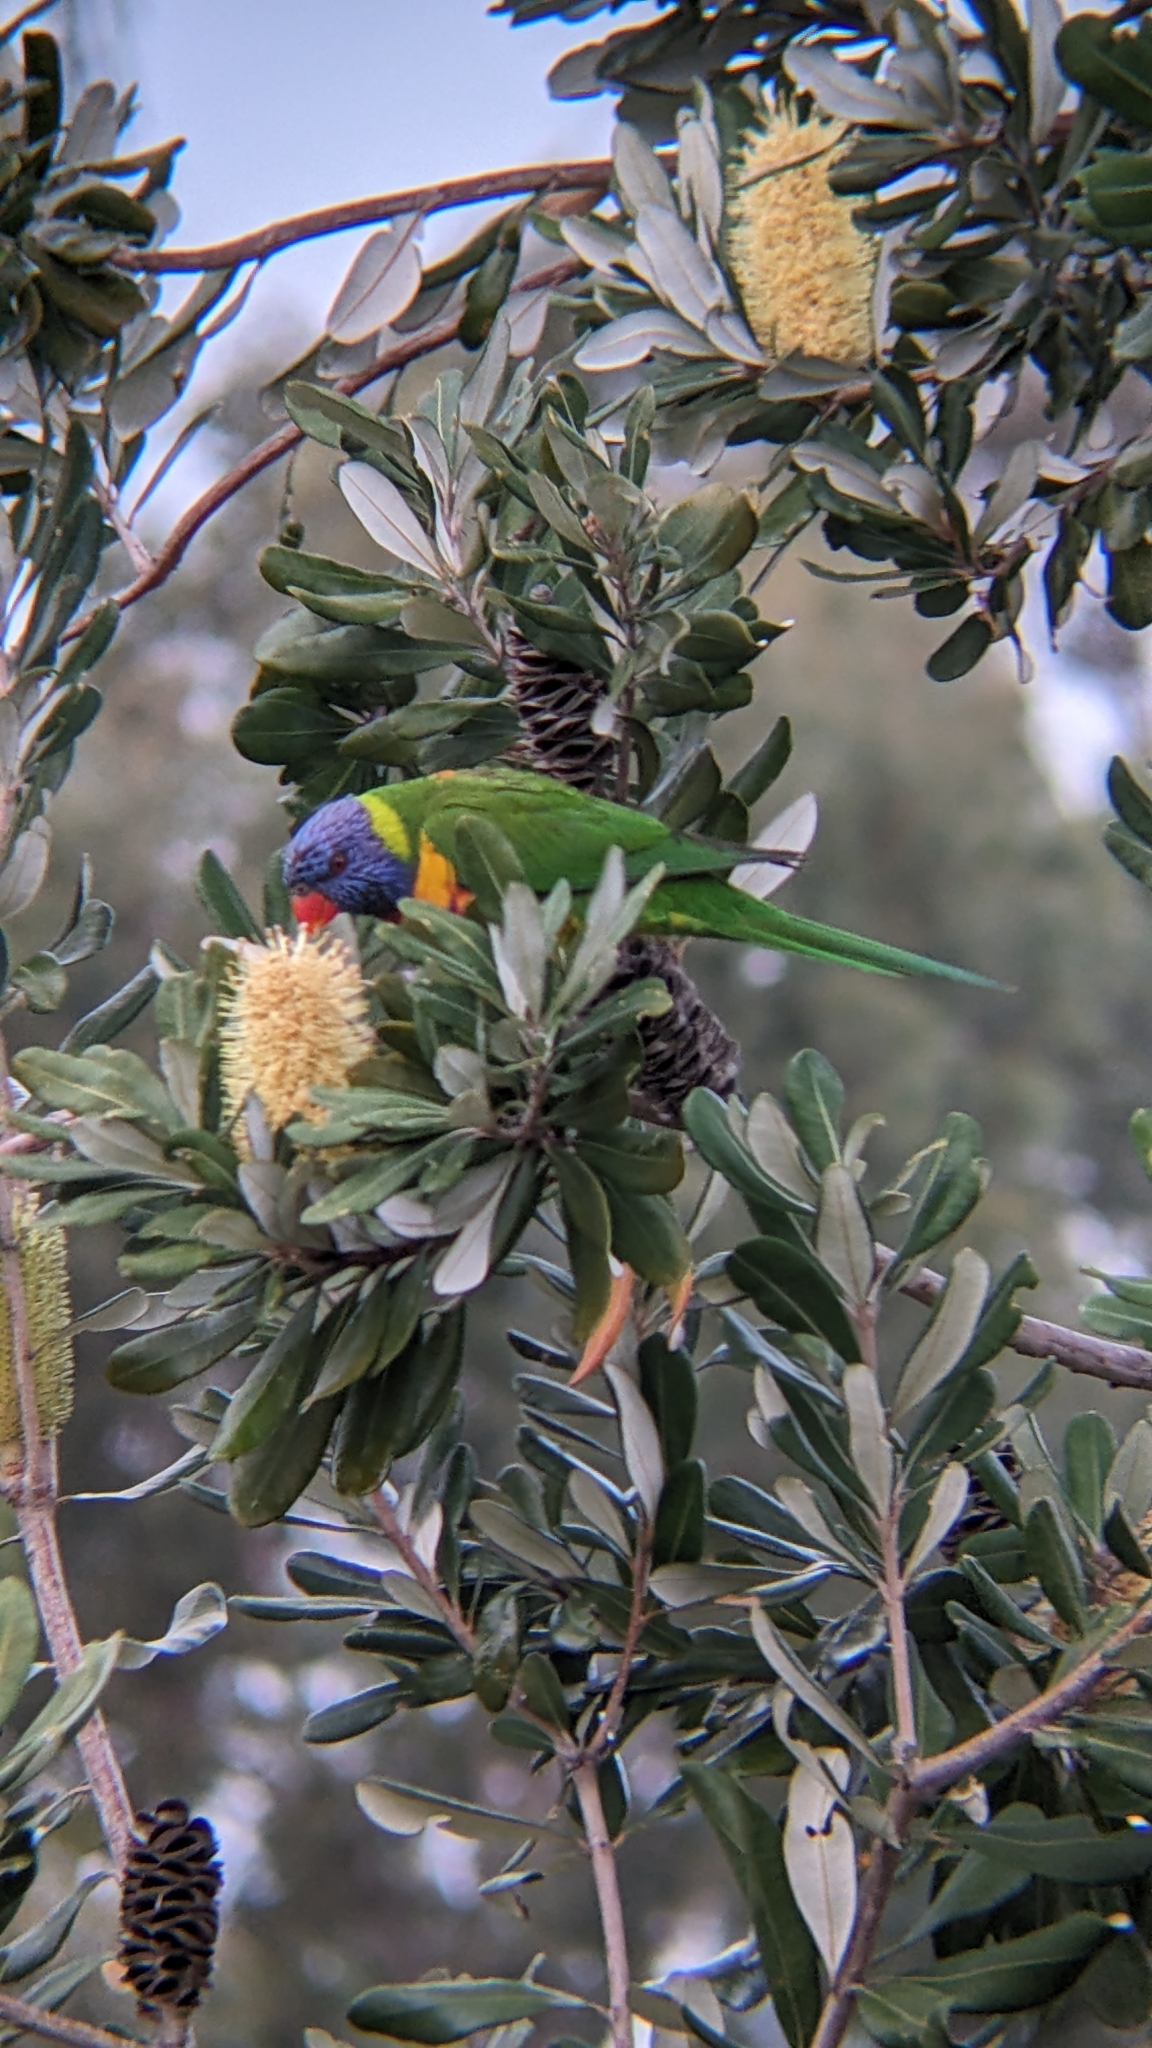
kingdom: Animalia
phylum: Chordata
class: Aves
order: Psittaciformes
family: Psittacidae
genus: Trichoglossus
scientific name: Trichoglossus haematodus
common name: Coconut lorikeet
